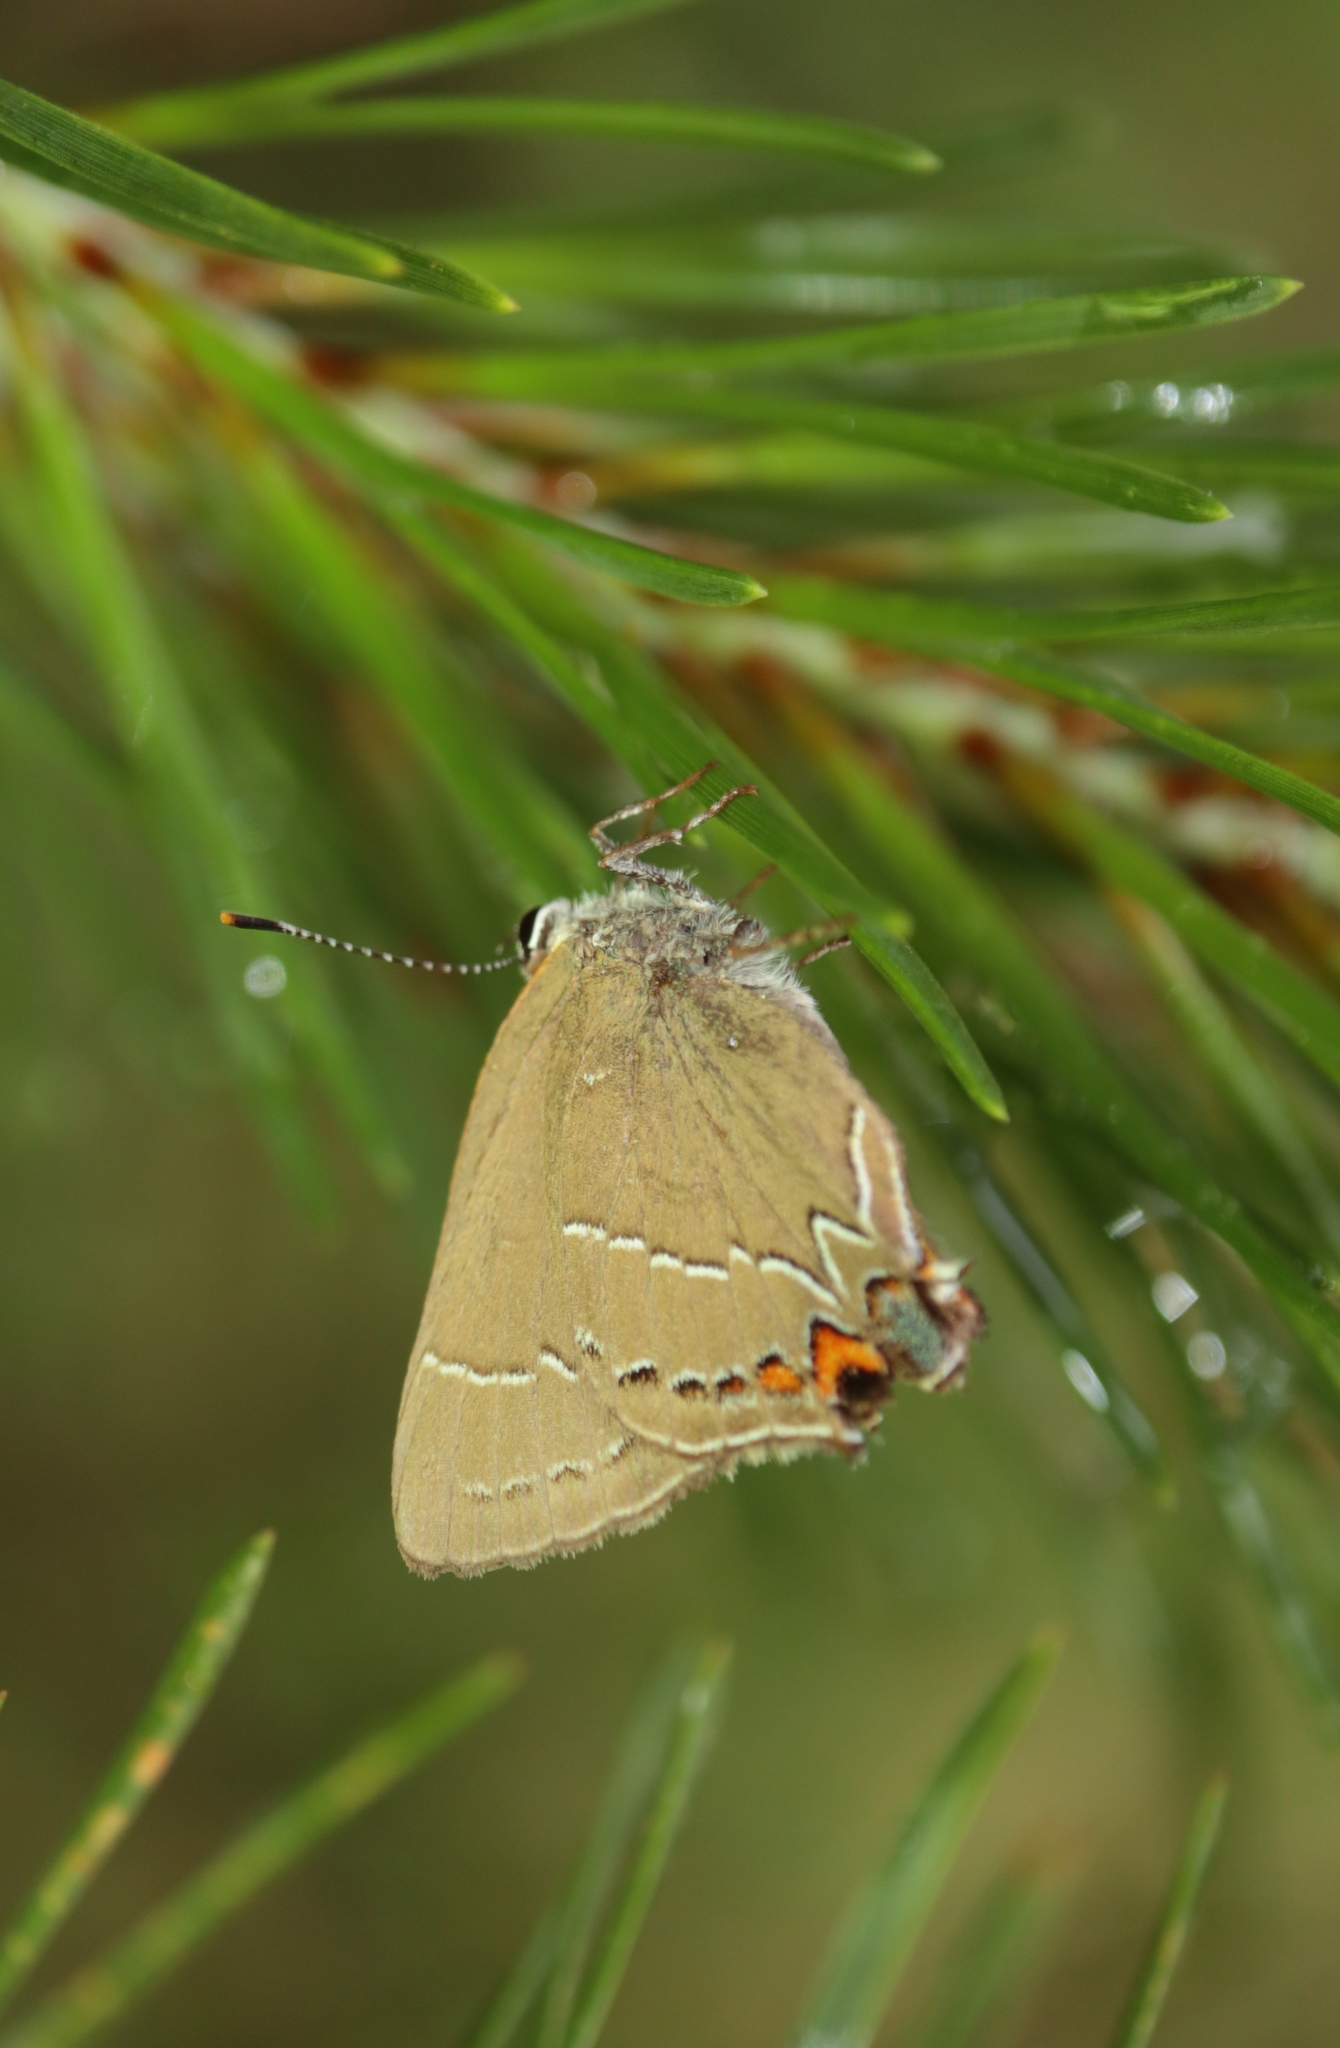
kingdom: Animalia
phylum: Arthropoda
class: Insecta
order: Lepidoptera
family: Lycaenidae
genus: Fixsenia
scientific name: Fixsenia favonius
